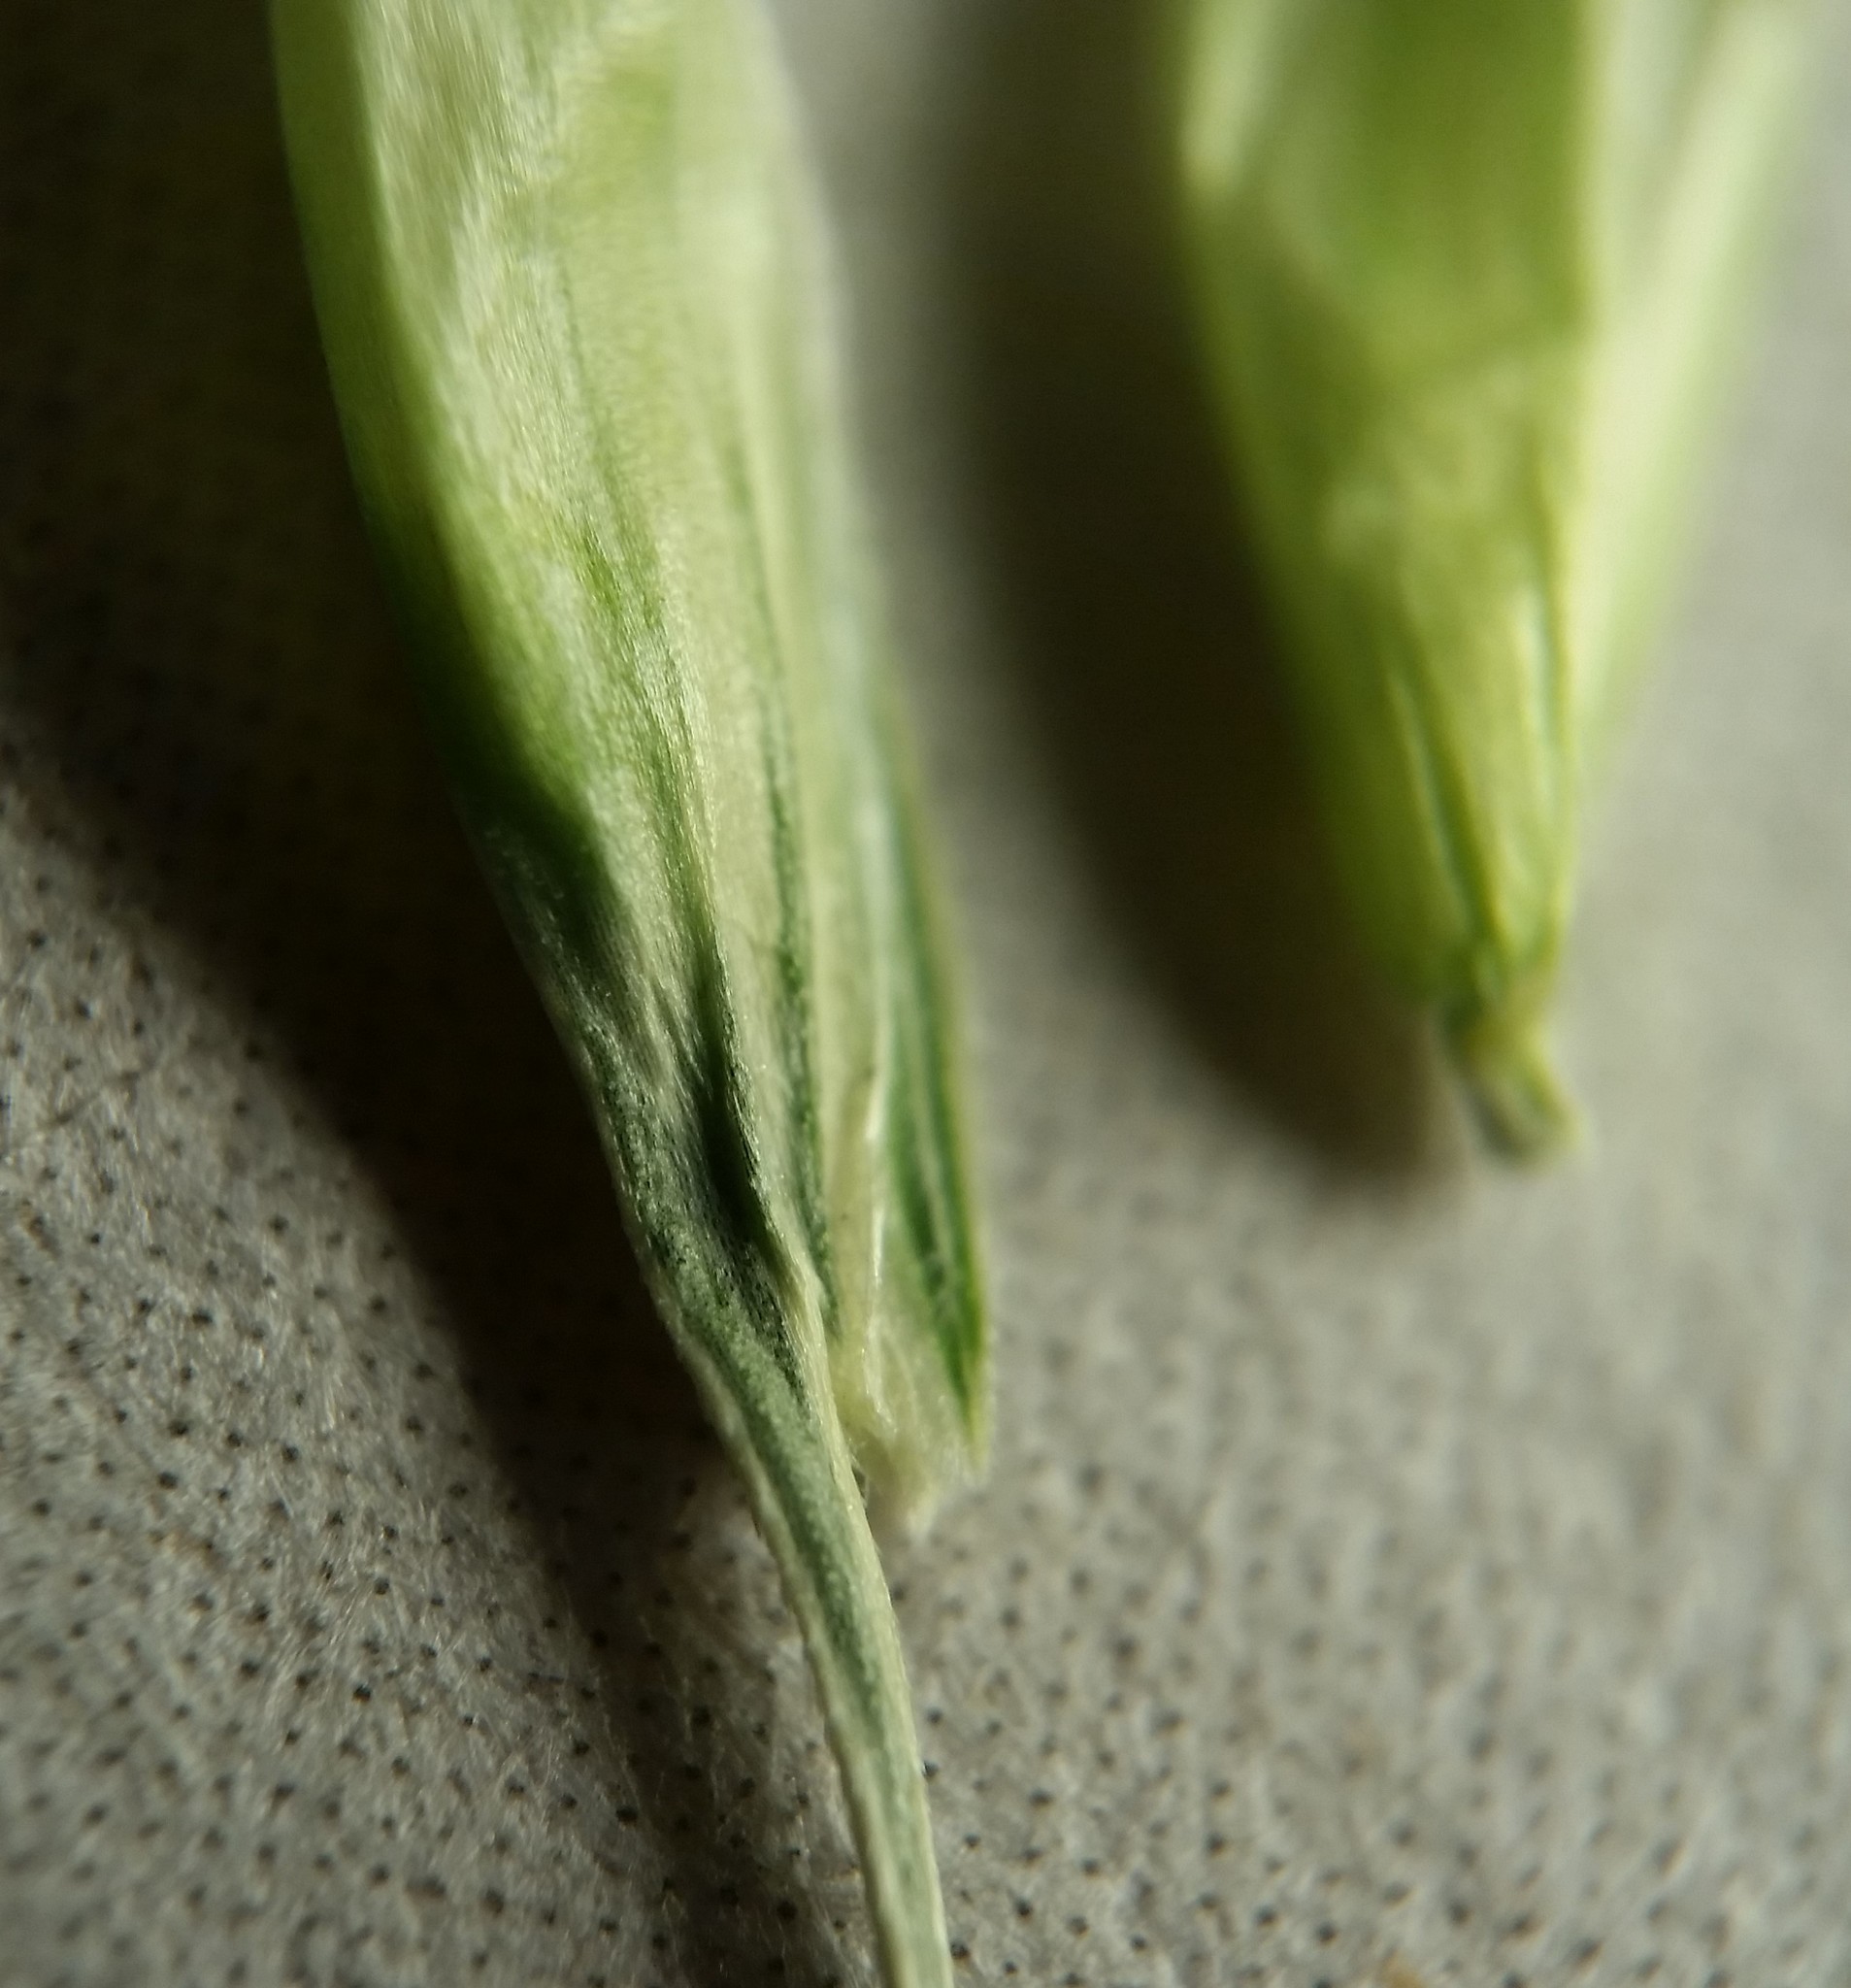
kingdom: Plantae
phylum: Tracheophyta
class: Liliopsida
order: Poales
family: Poaceae
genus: Triticum
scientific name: Triticum aestivum
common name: Common wheat
